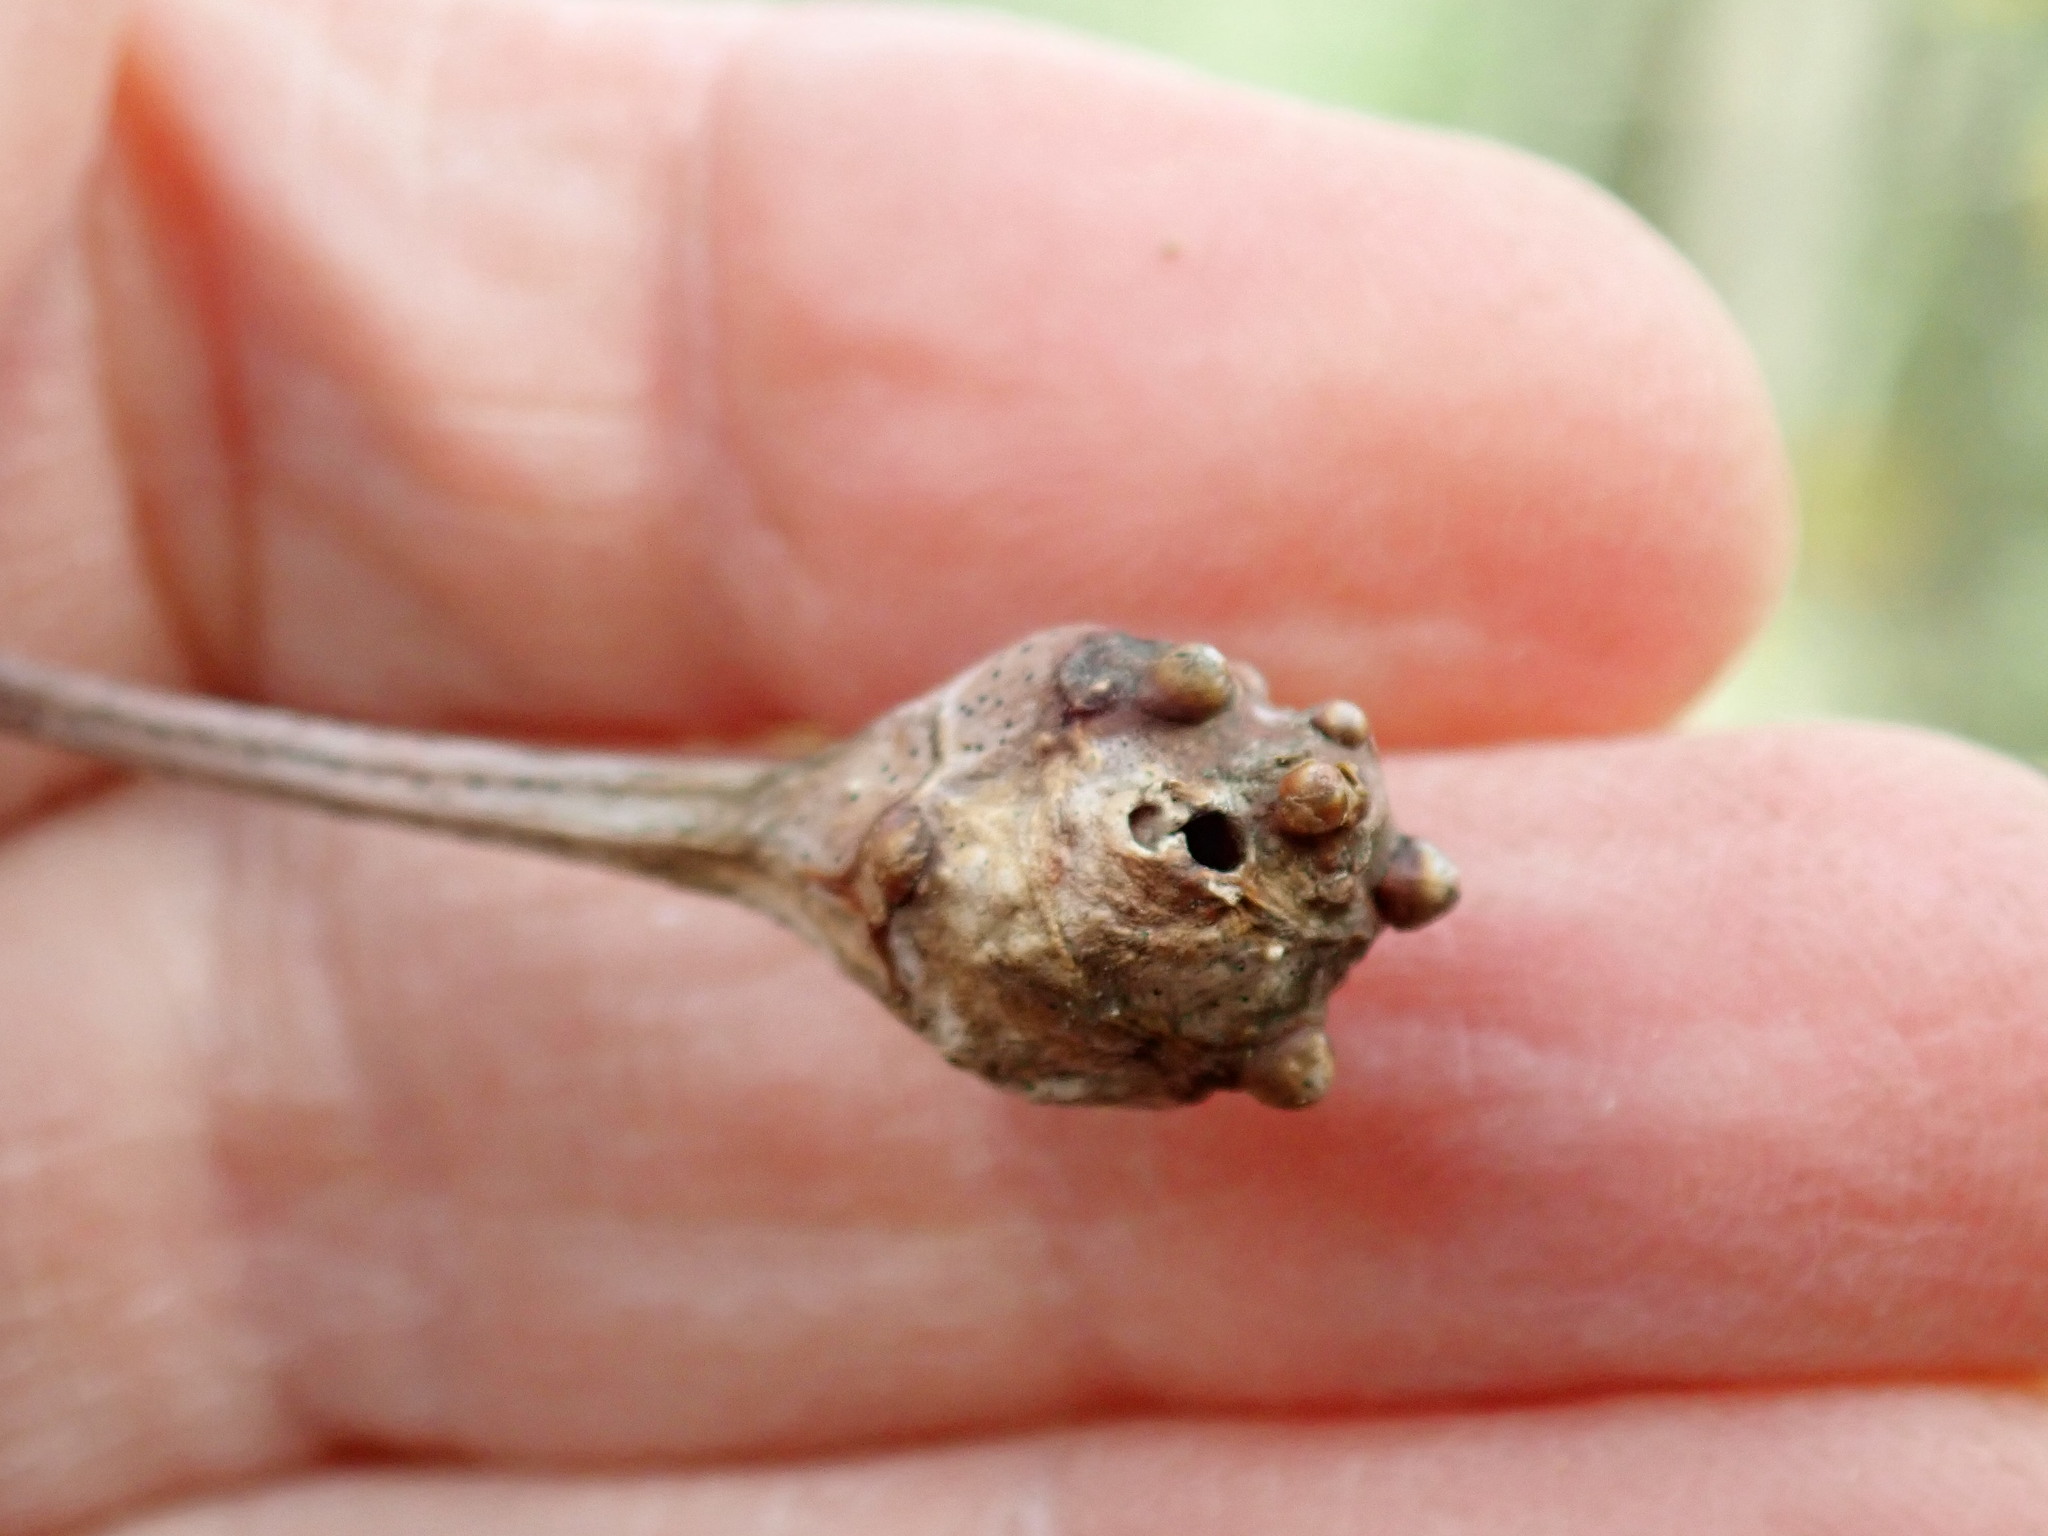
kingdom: Animalia
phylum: Arthropoda
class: Insecta
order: Hymenoptera
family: Cynipidae
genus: Callirhytis
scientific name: Callirhytis clavula
